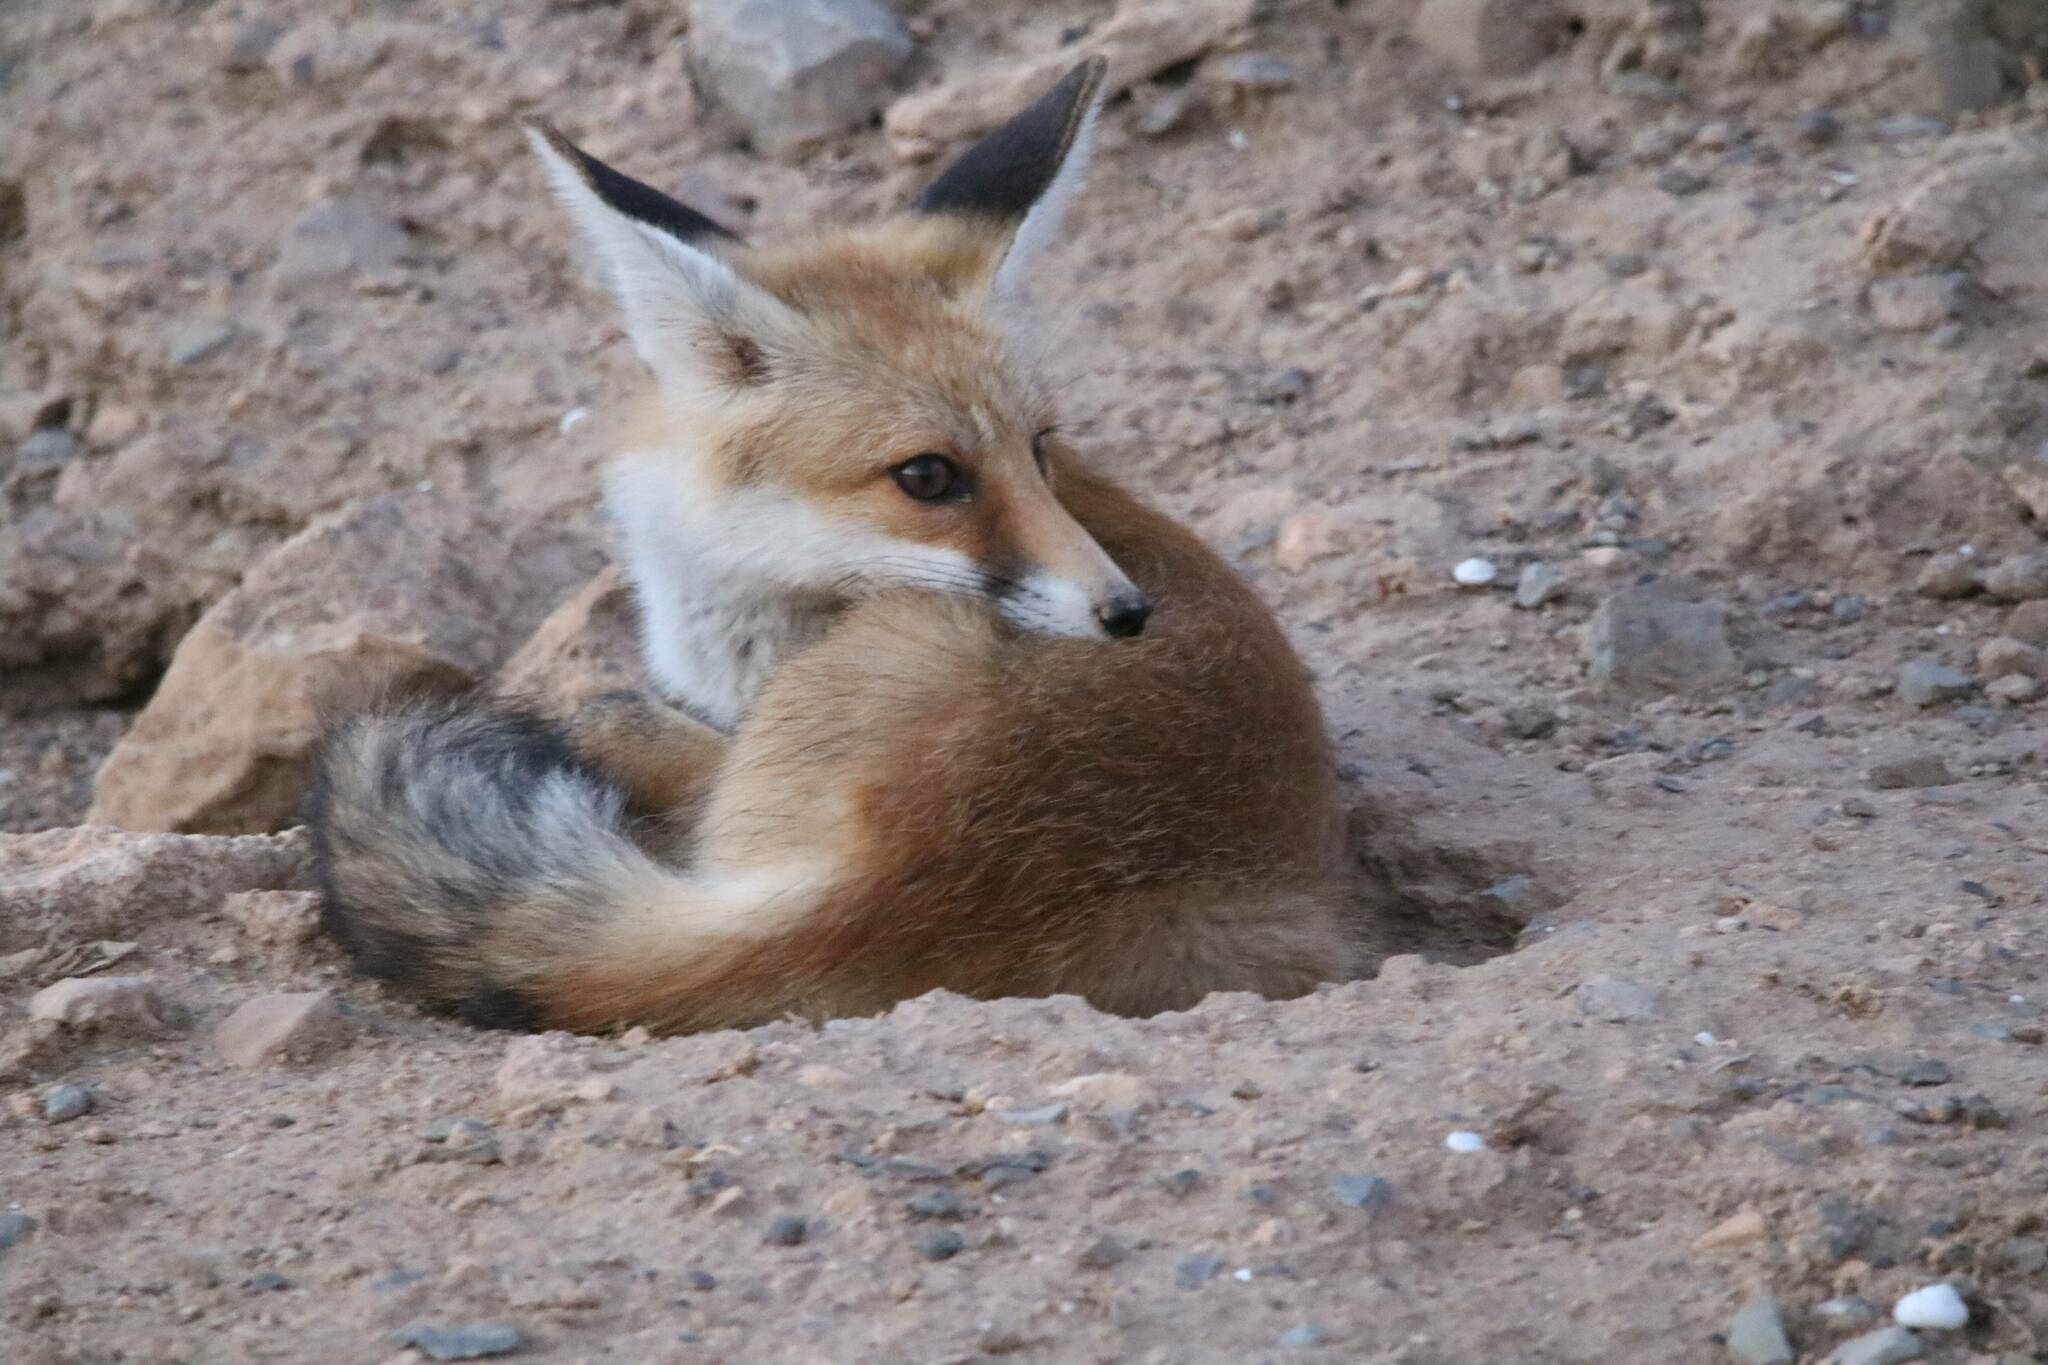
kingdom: Animalia
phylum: Chordata
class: Mammalia
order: Carnivora
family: Canidae
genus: Vulpes
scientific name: Vulpes vulpes
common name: Red fox
